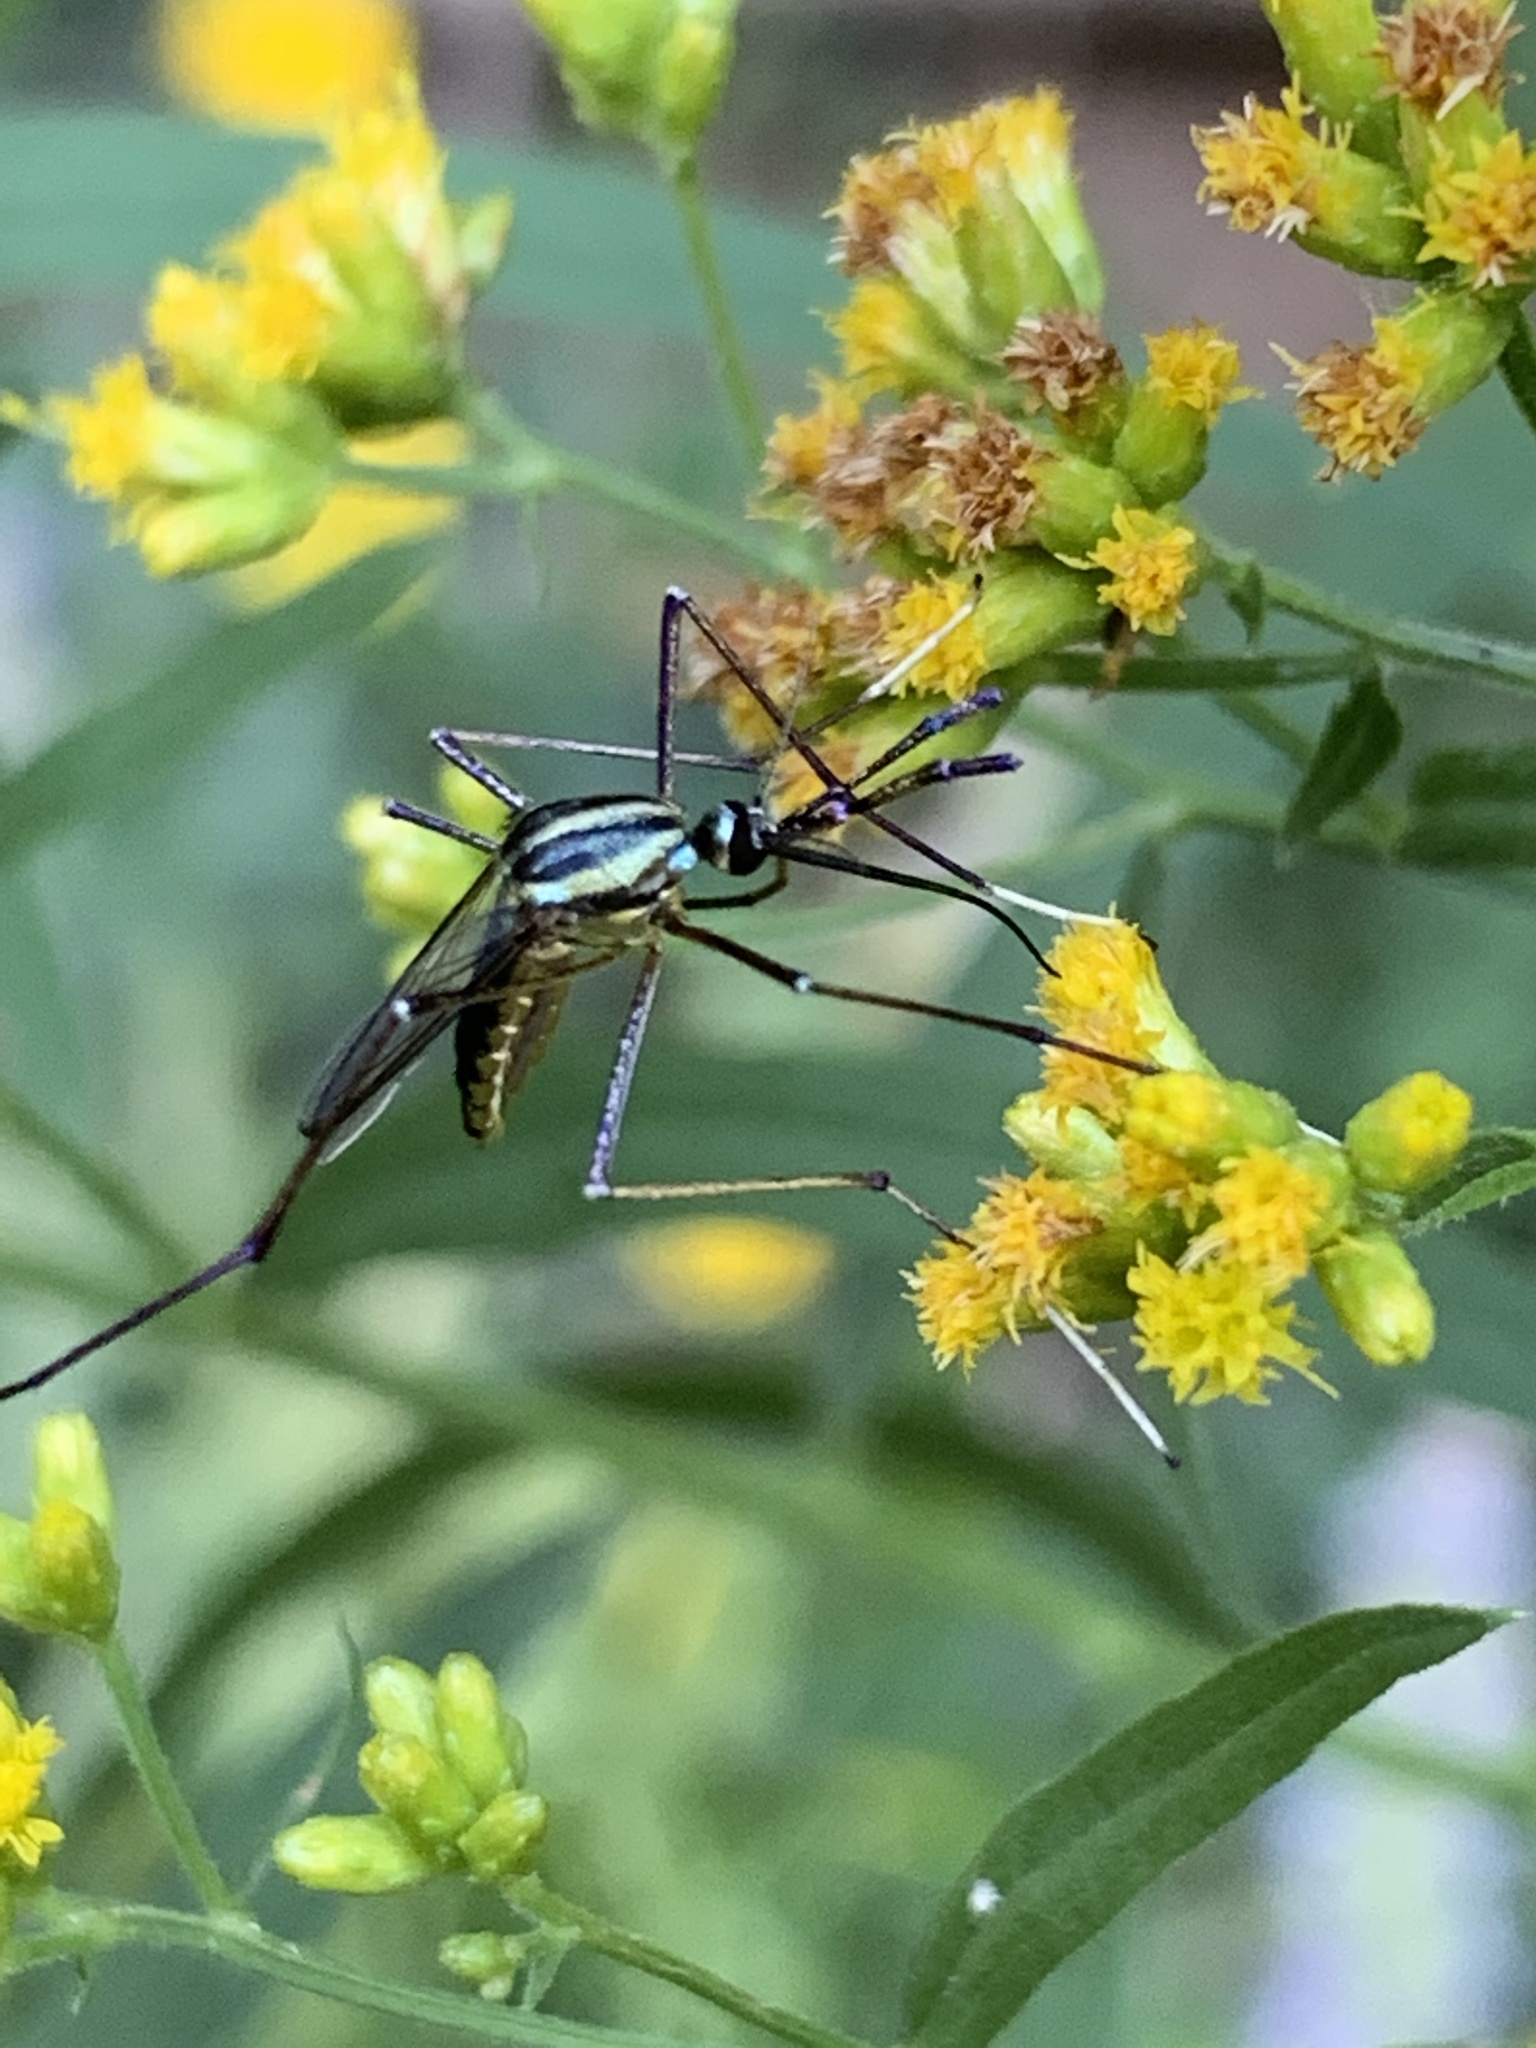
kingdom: Animalia
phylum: Arthropoda
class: Insecta
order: Diptera
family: Culicidae
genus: Toxorhynchites
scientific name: Toxorhynchites rutilus
